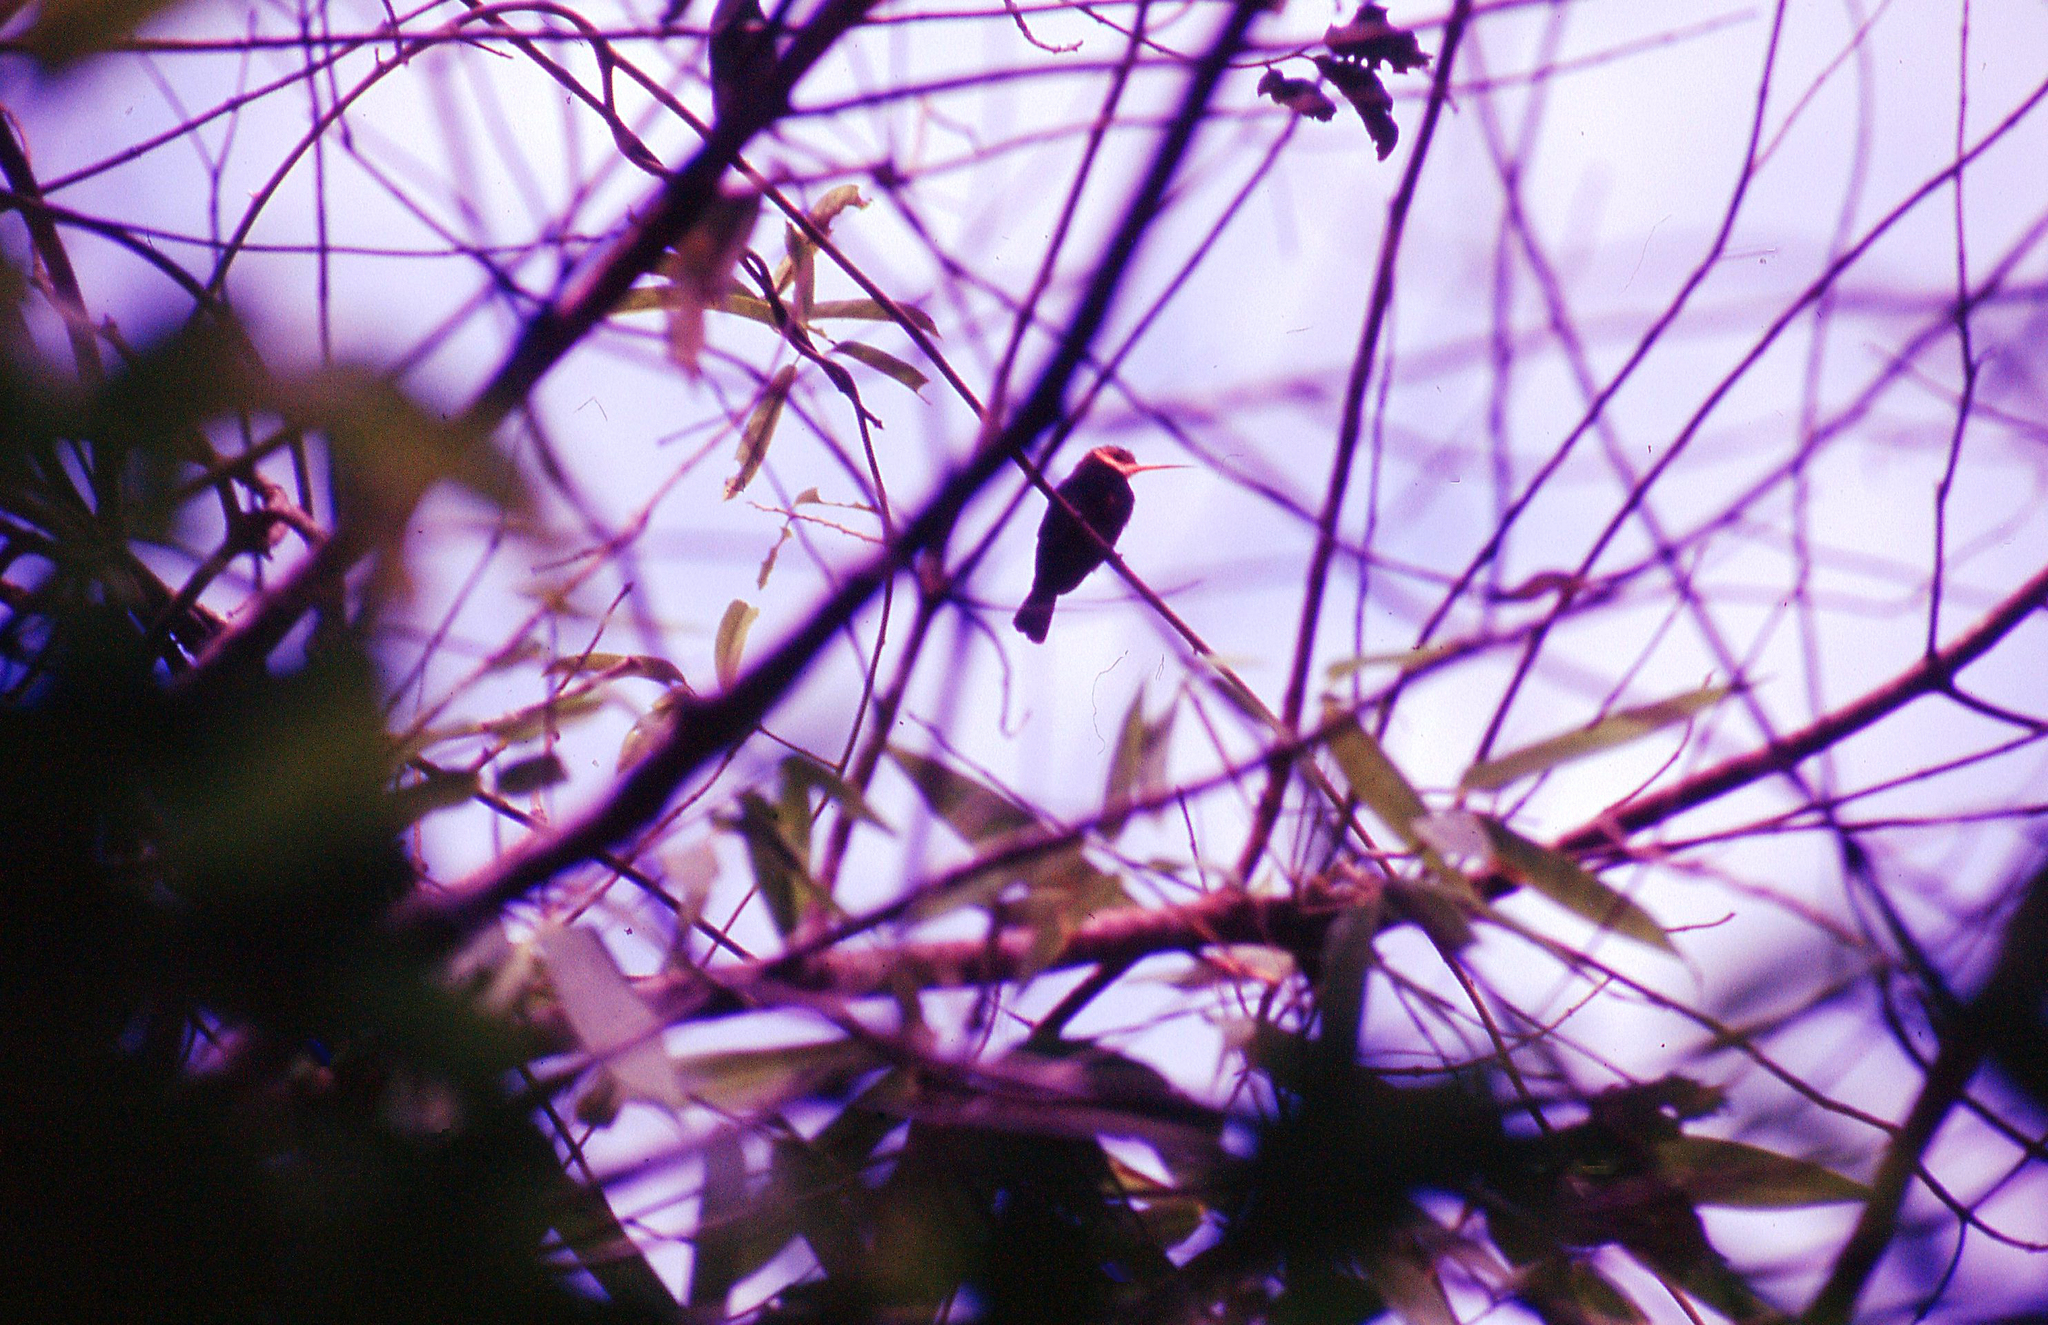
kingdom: Animalia
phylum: Chordata
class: Aves
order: Piciformes
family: Galbulidae
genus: Brachygalba
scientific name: Brachygalba albogularis
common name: White-throated jacamar
